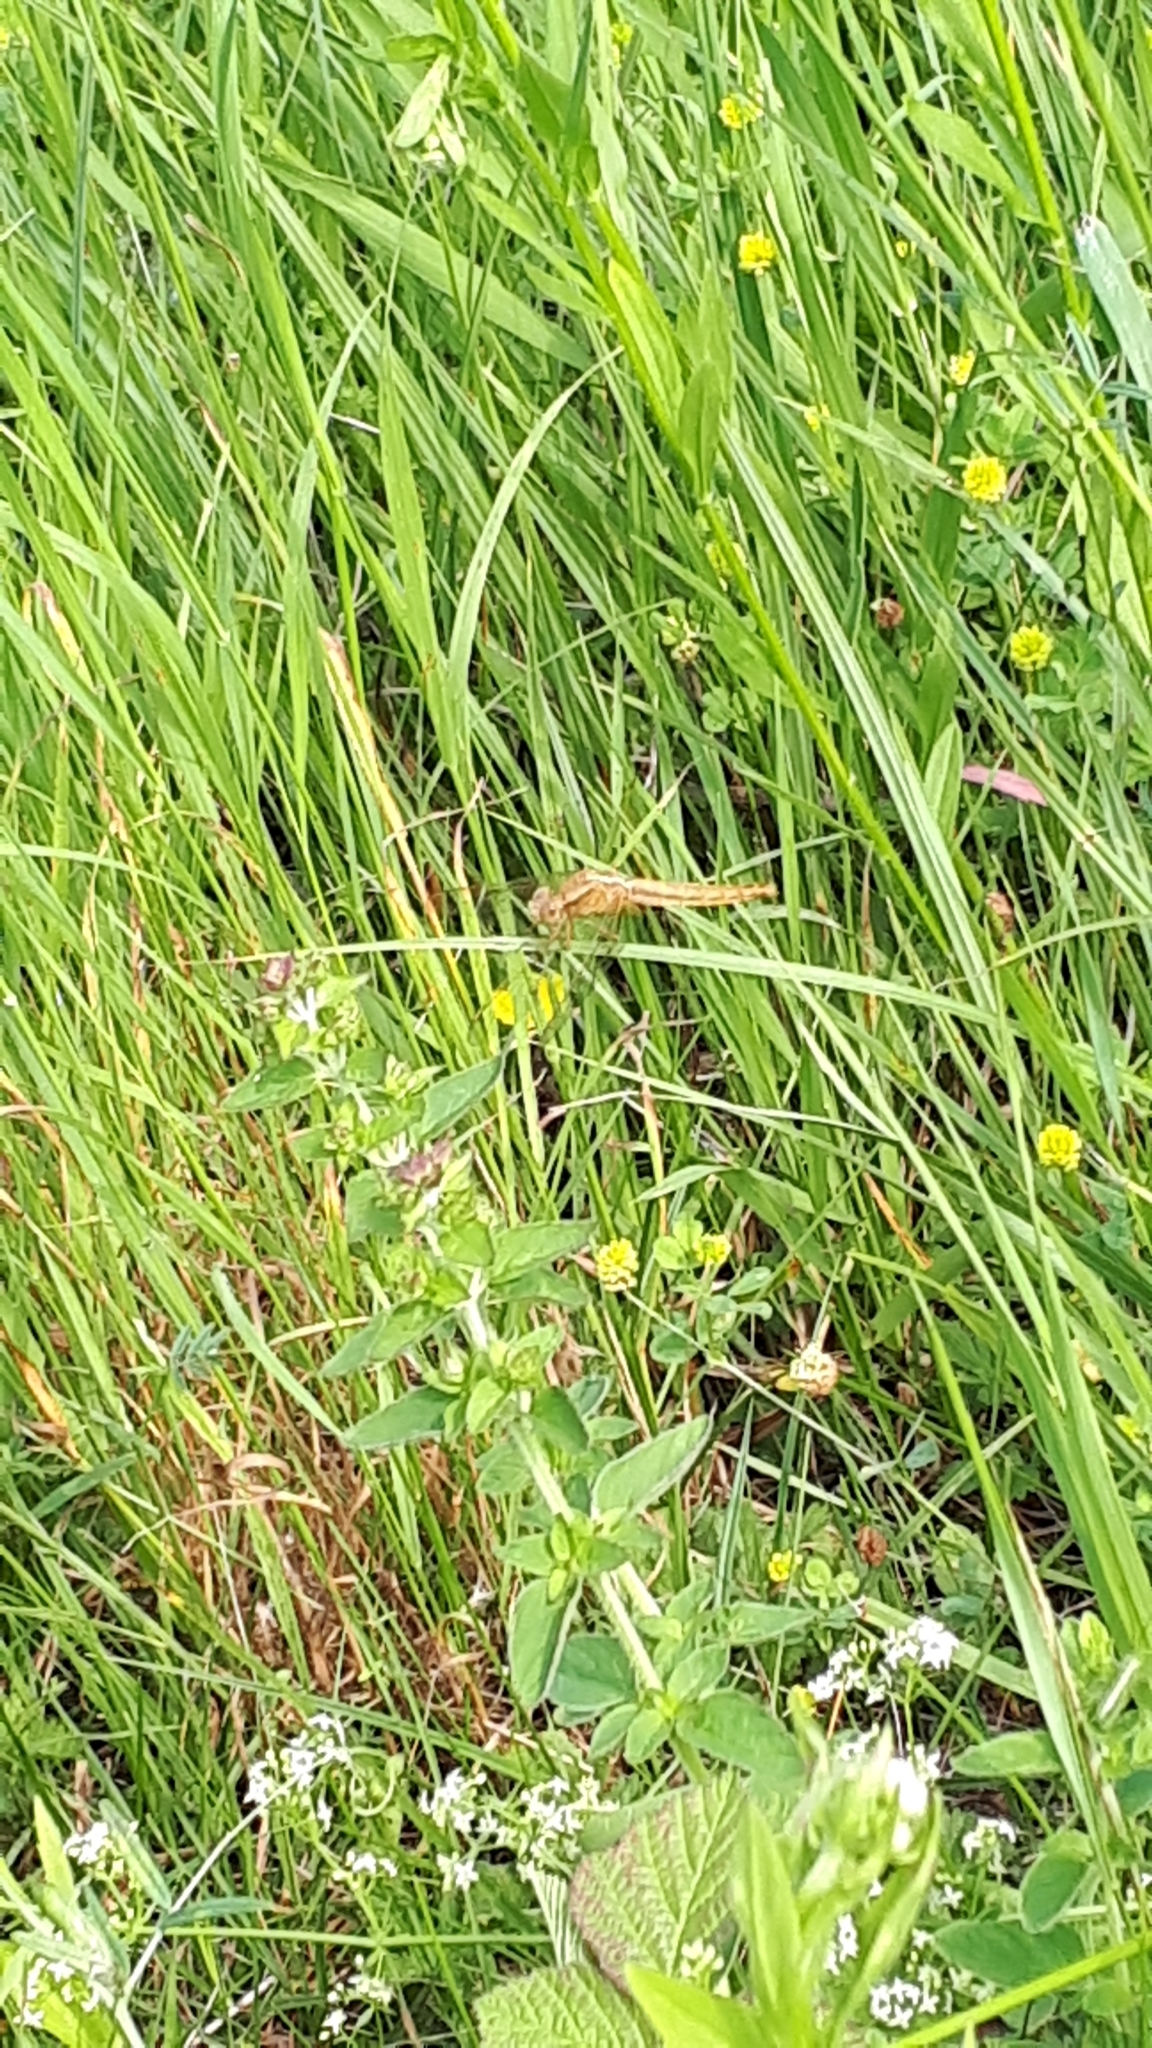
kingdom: Animalia
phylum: Arthropoda
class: Insecta
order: Odonata
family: Libellulidae
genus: Crocothemis
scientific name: Crocothemis erythraea
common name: Scarlet dragonfly
